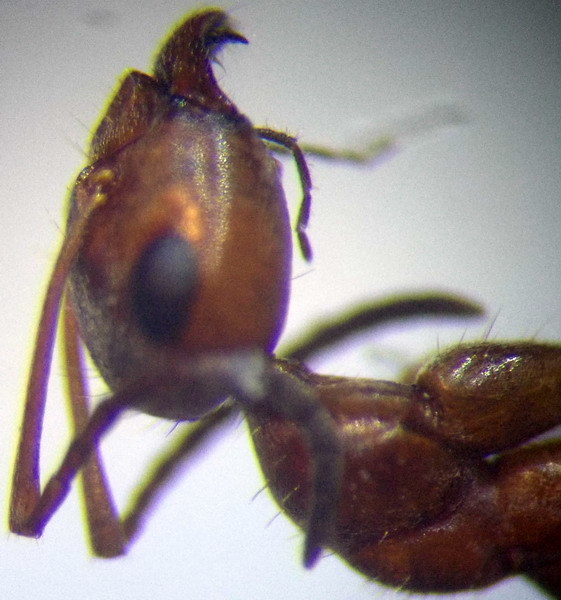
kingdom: Animalia
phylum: Arthropoda
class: Insecta
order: Hymenoptera
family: Formicidae
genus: Formica
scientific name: Formica subpilosa
